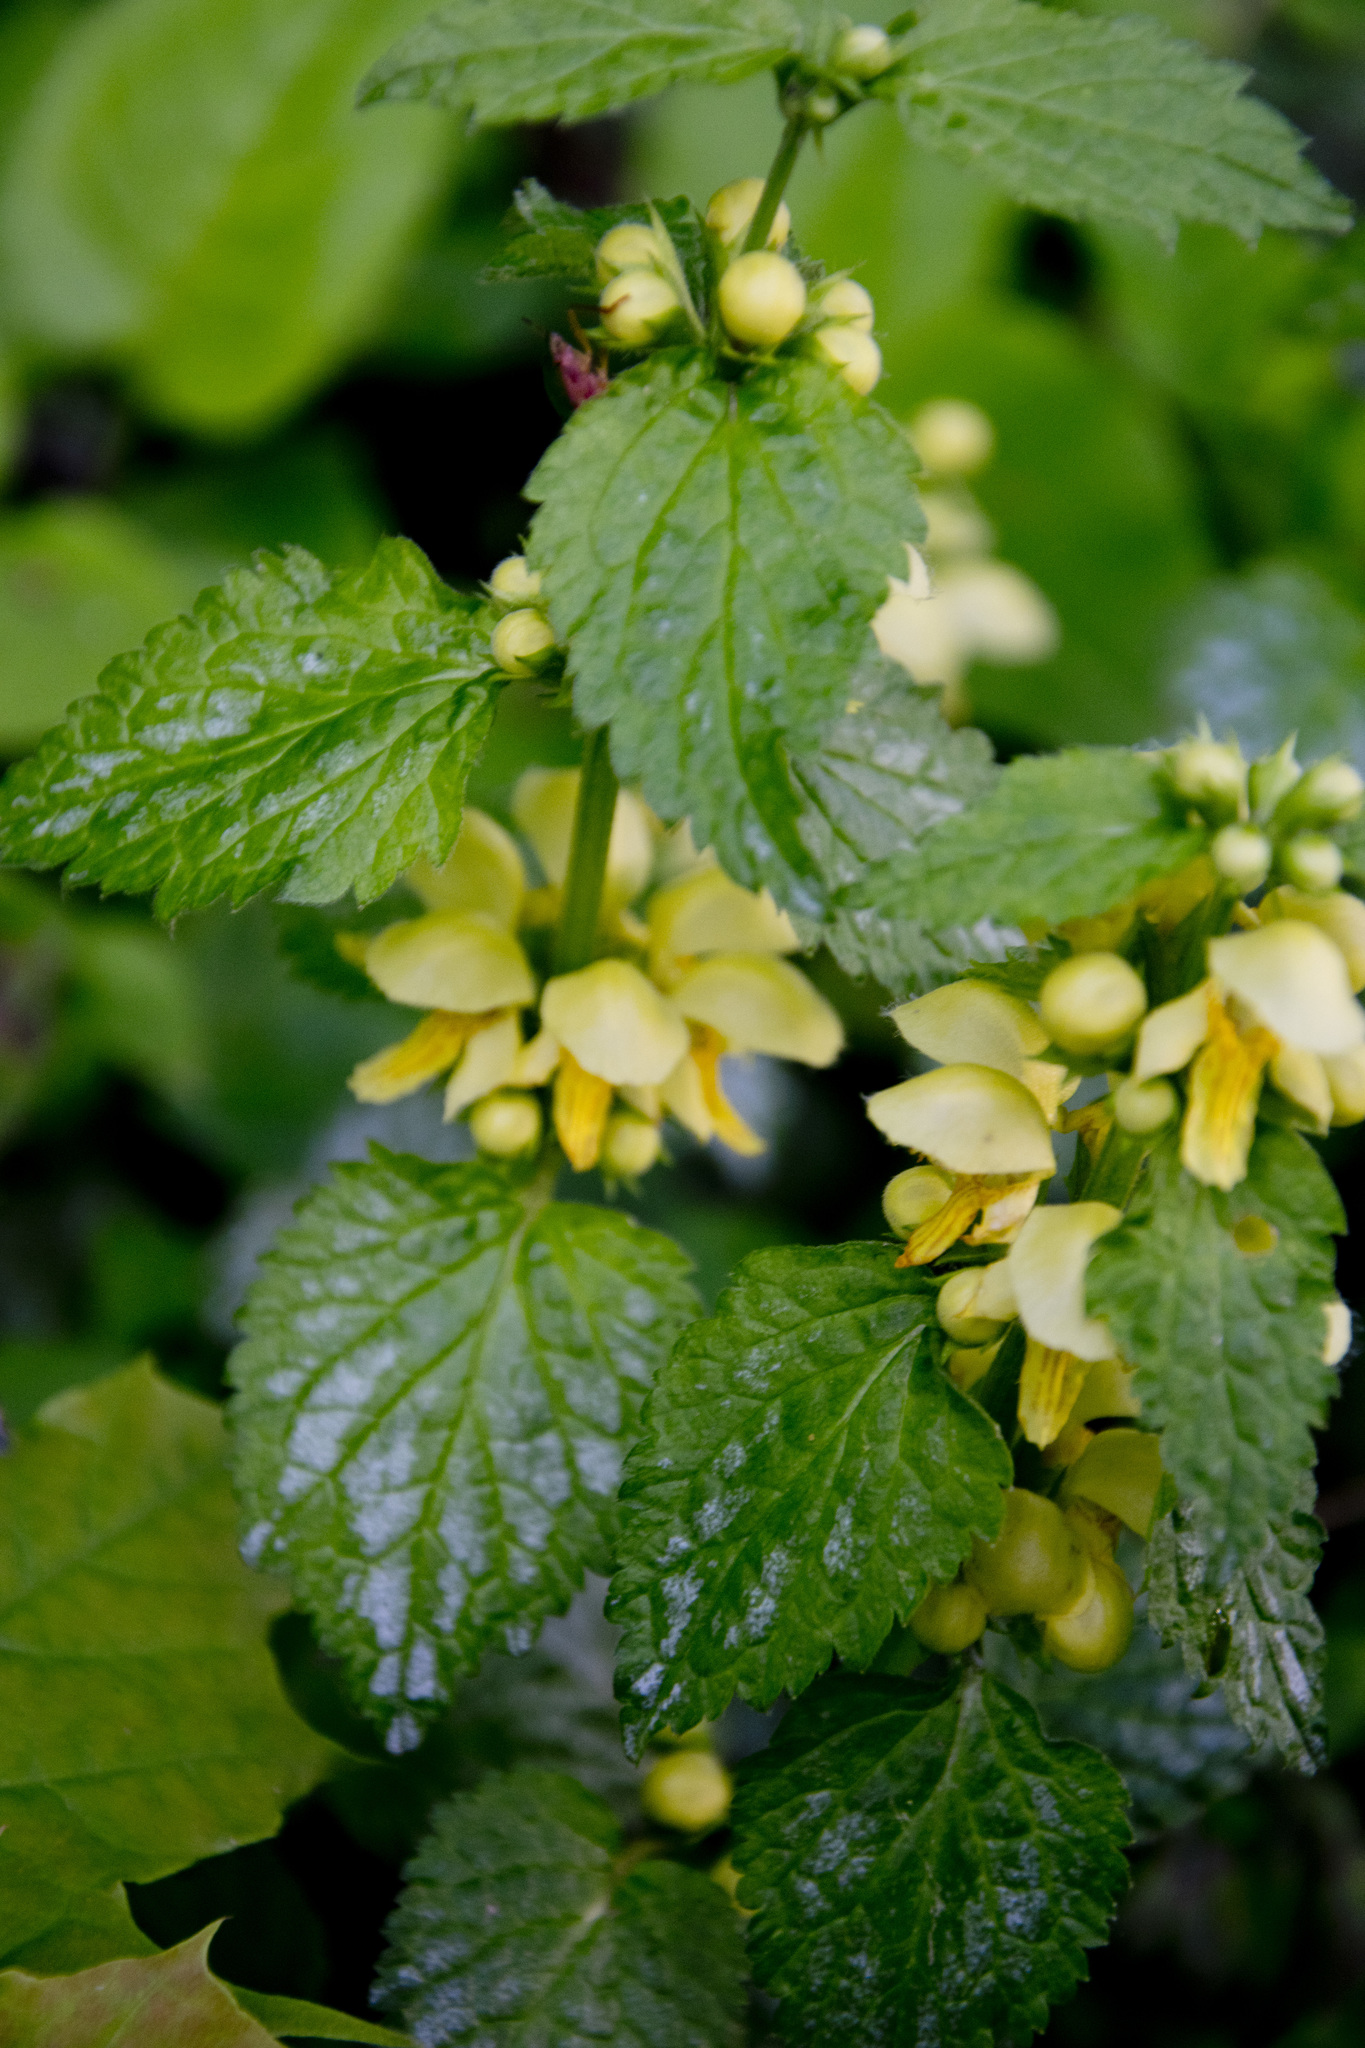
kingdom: Plantae
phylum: Tracheophyta
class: Magnoliopsida
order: Lamiales
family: Lamiaceae
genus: Lamium
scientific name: Lamium galeobdolon
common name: Yellow archangel
